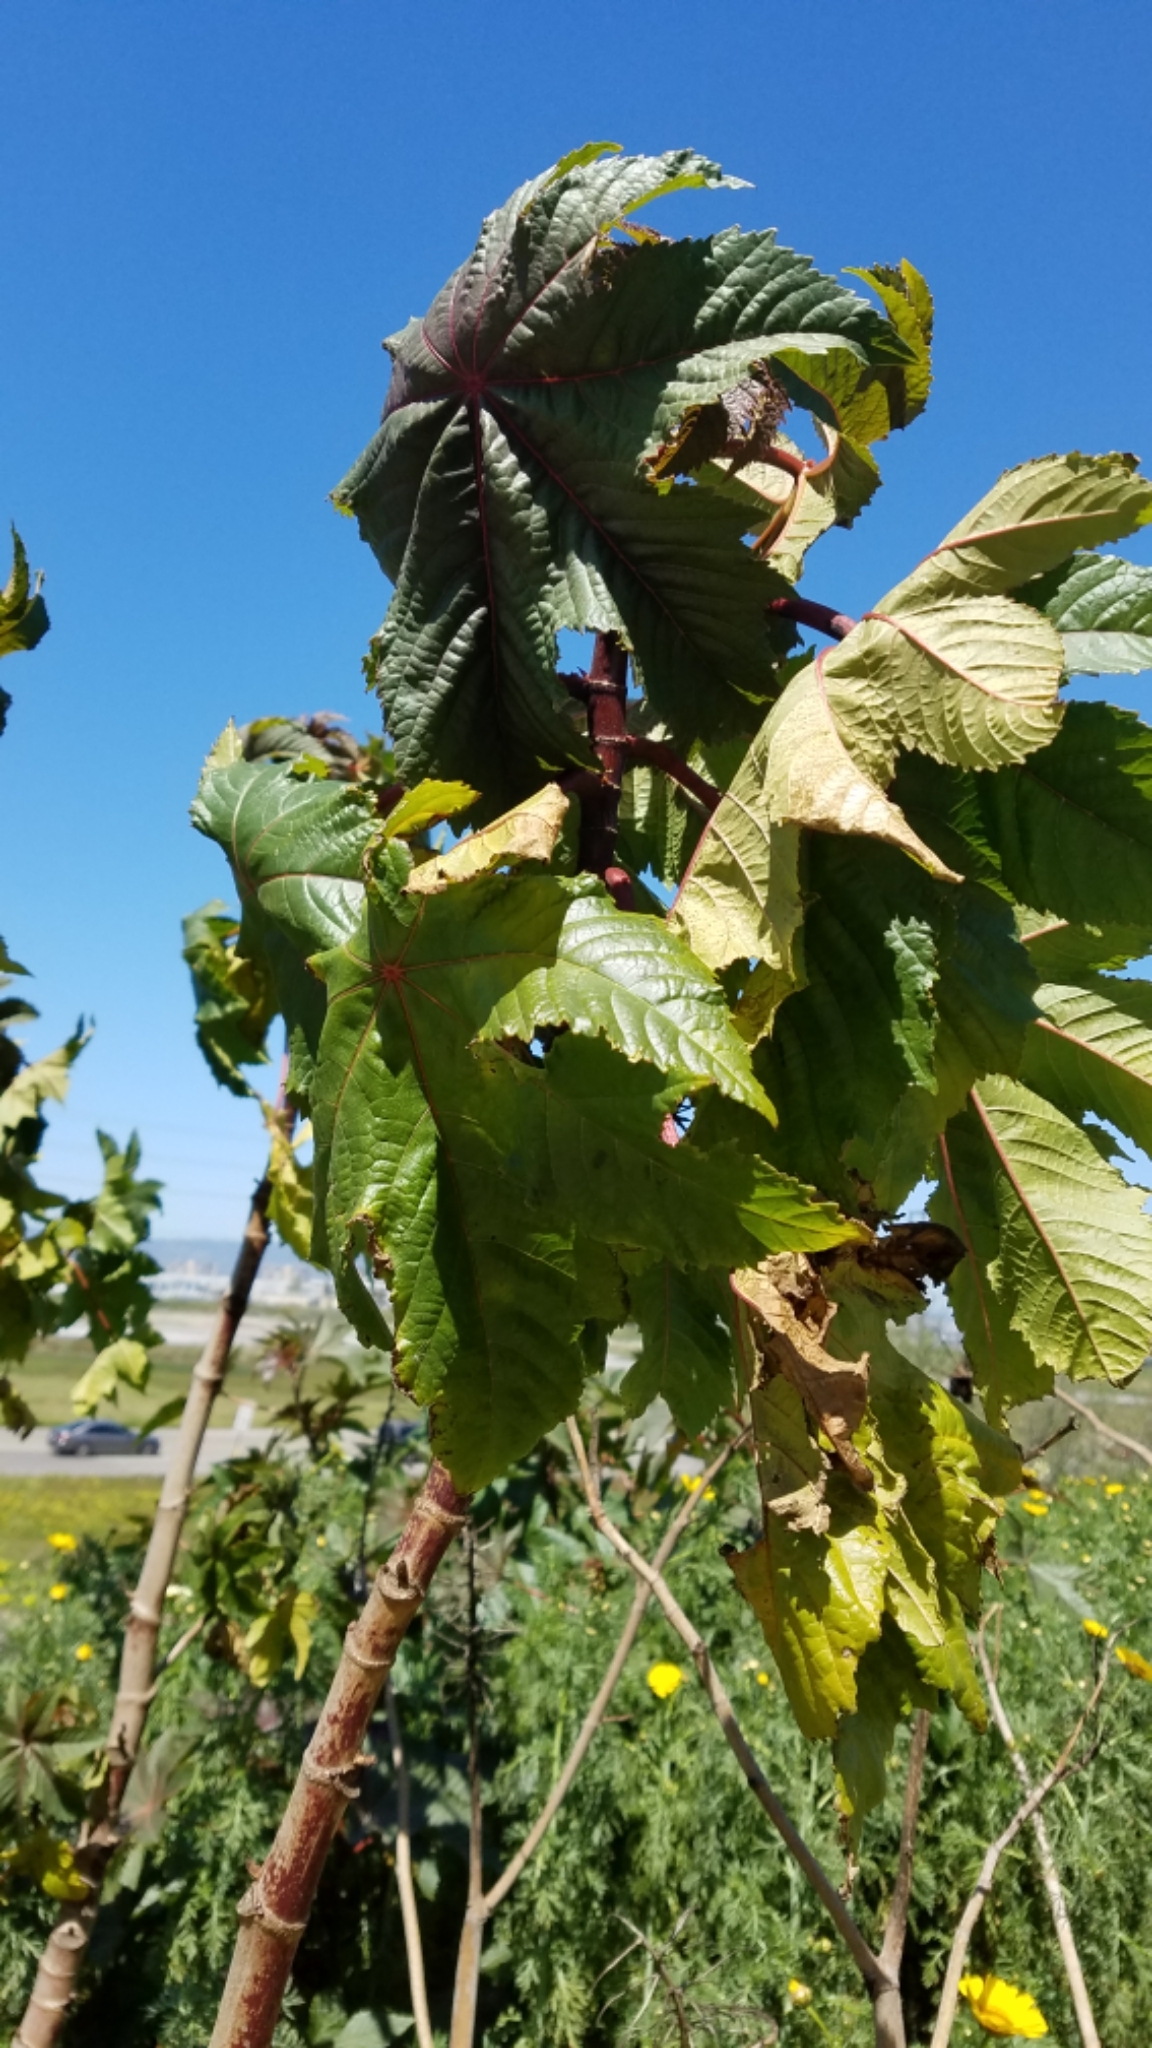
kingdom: Plantae
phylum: Tracheophyta
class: Magnoliopsida
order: Malpighiales
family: Euphorbiaceae
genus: Ricinus
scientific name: Ricinus communis
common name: Castor-oil-plant
